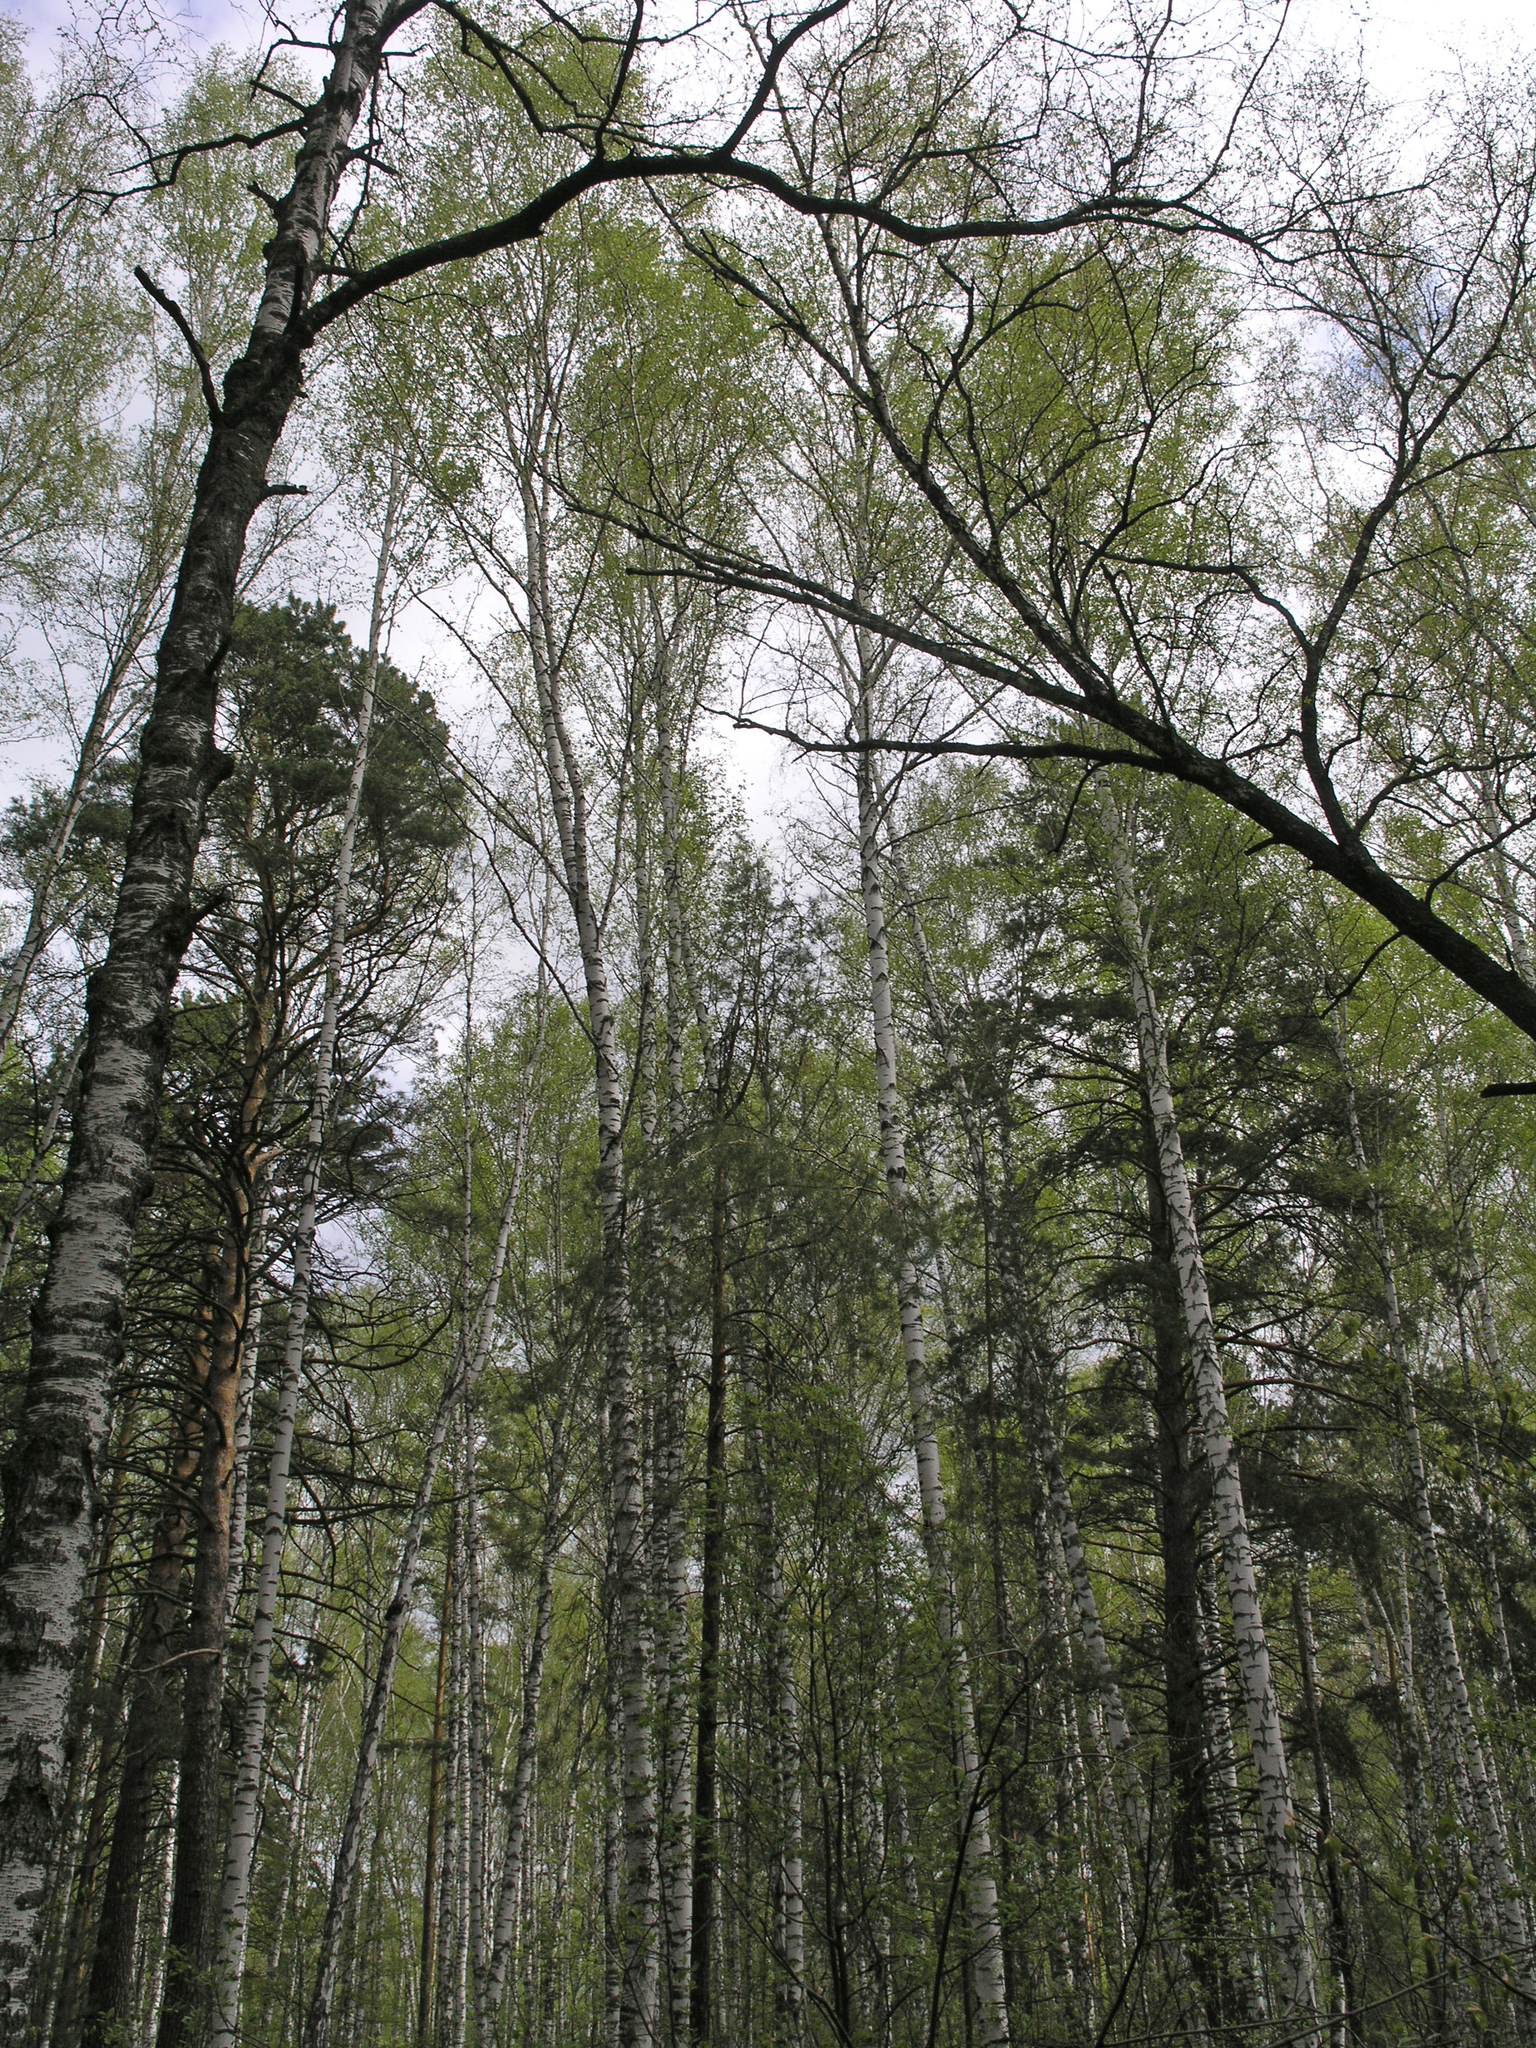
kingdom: Plantae
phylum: Tracheophyta
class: Magnoliopsida
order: Fagales
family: Betulaceae
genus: Betula
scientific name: Betula pendula
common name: Silver birch
